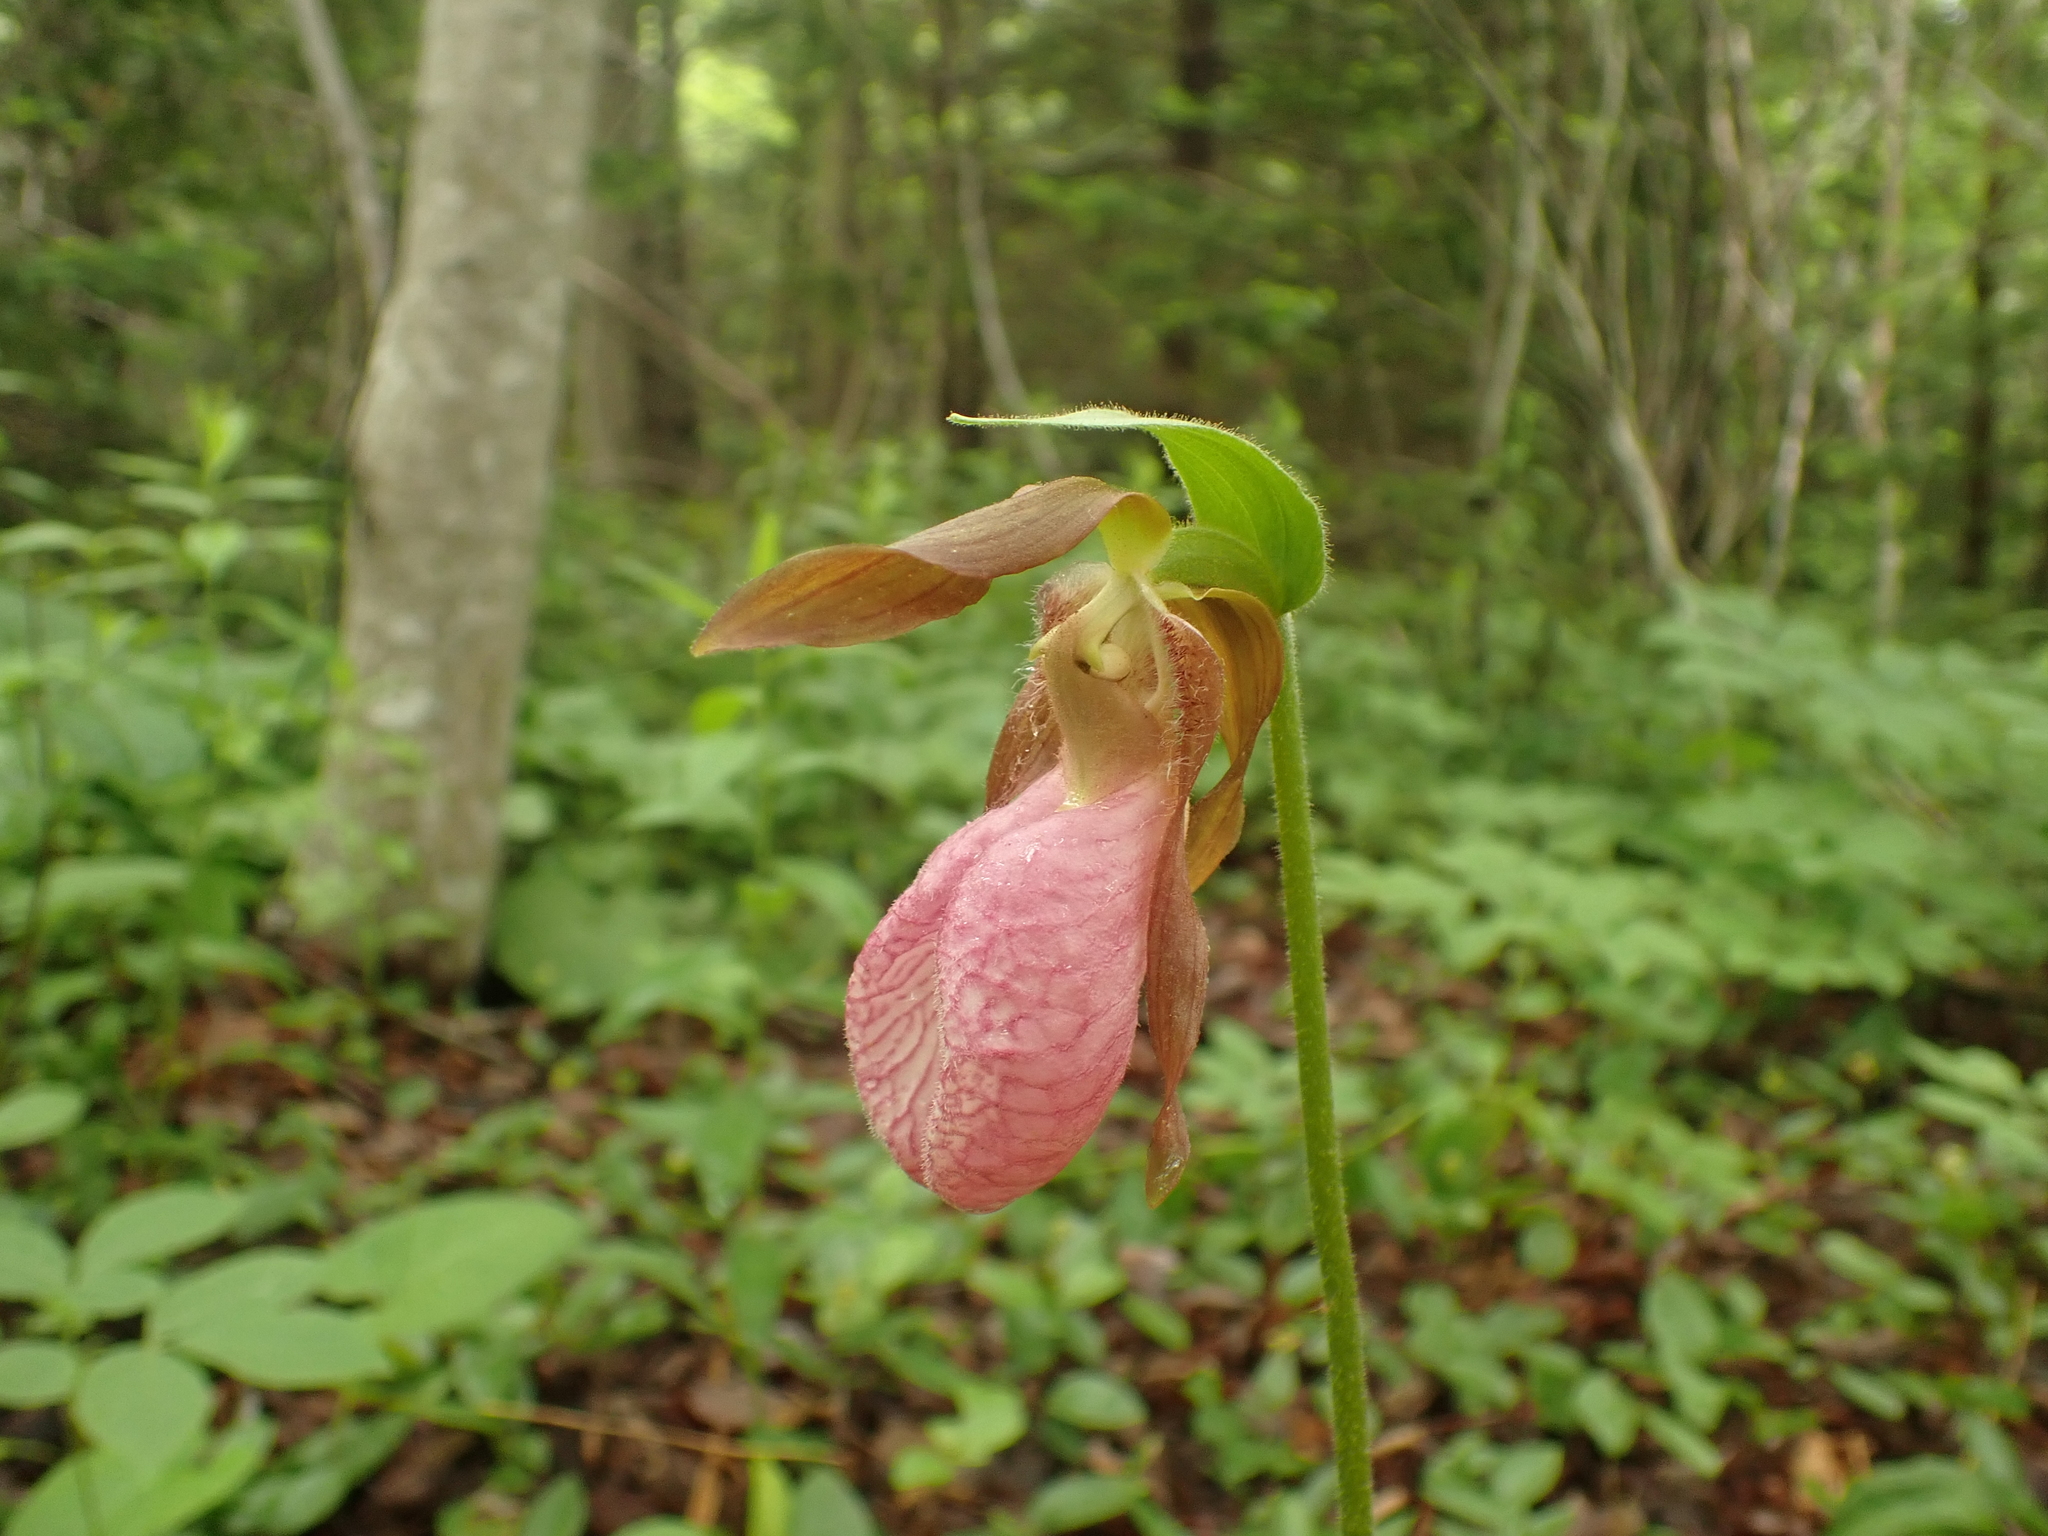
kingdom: Plantae
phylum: Tracheophyta
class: Liliopsida
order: Asparagales
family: Orchidaceae
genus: Cypripedium
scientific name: Cypripedium acaule
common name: Pink lady's-slipper
